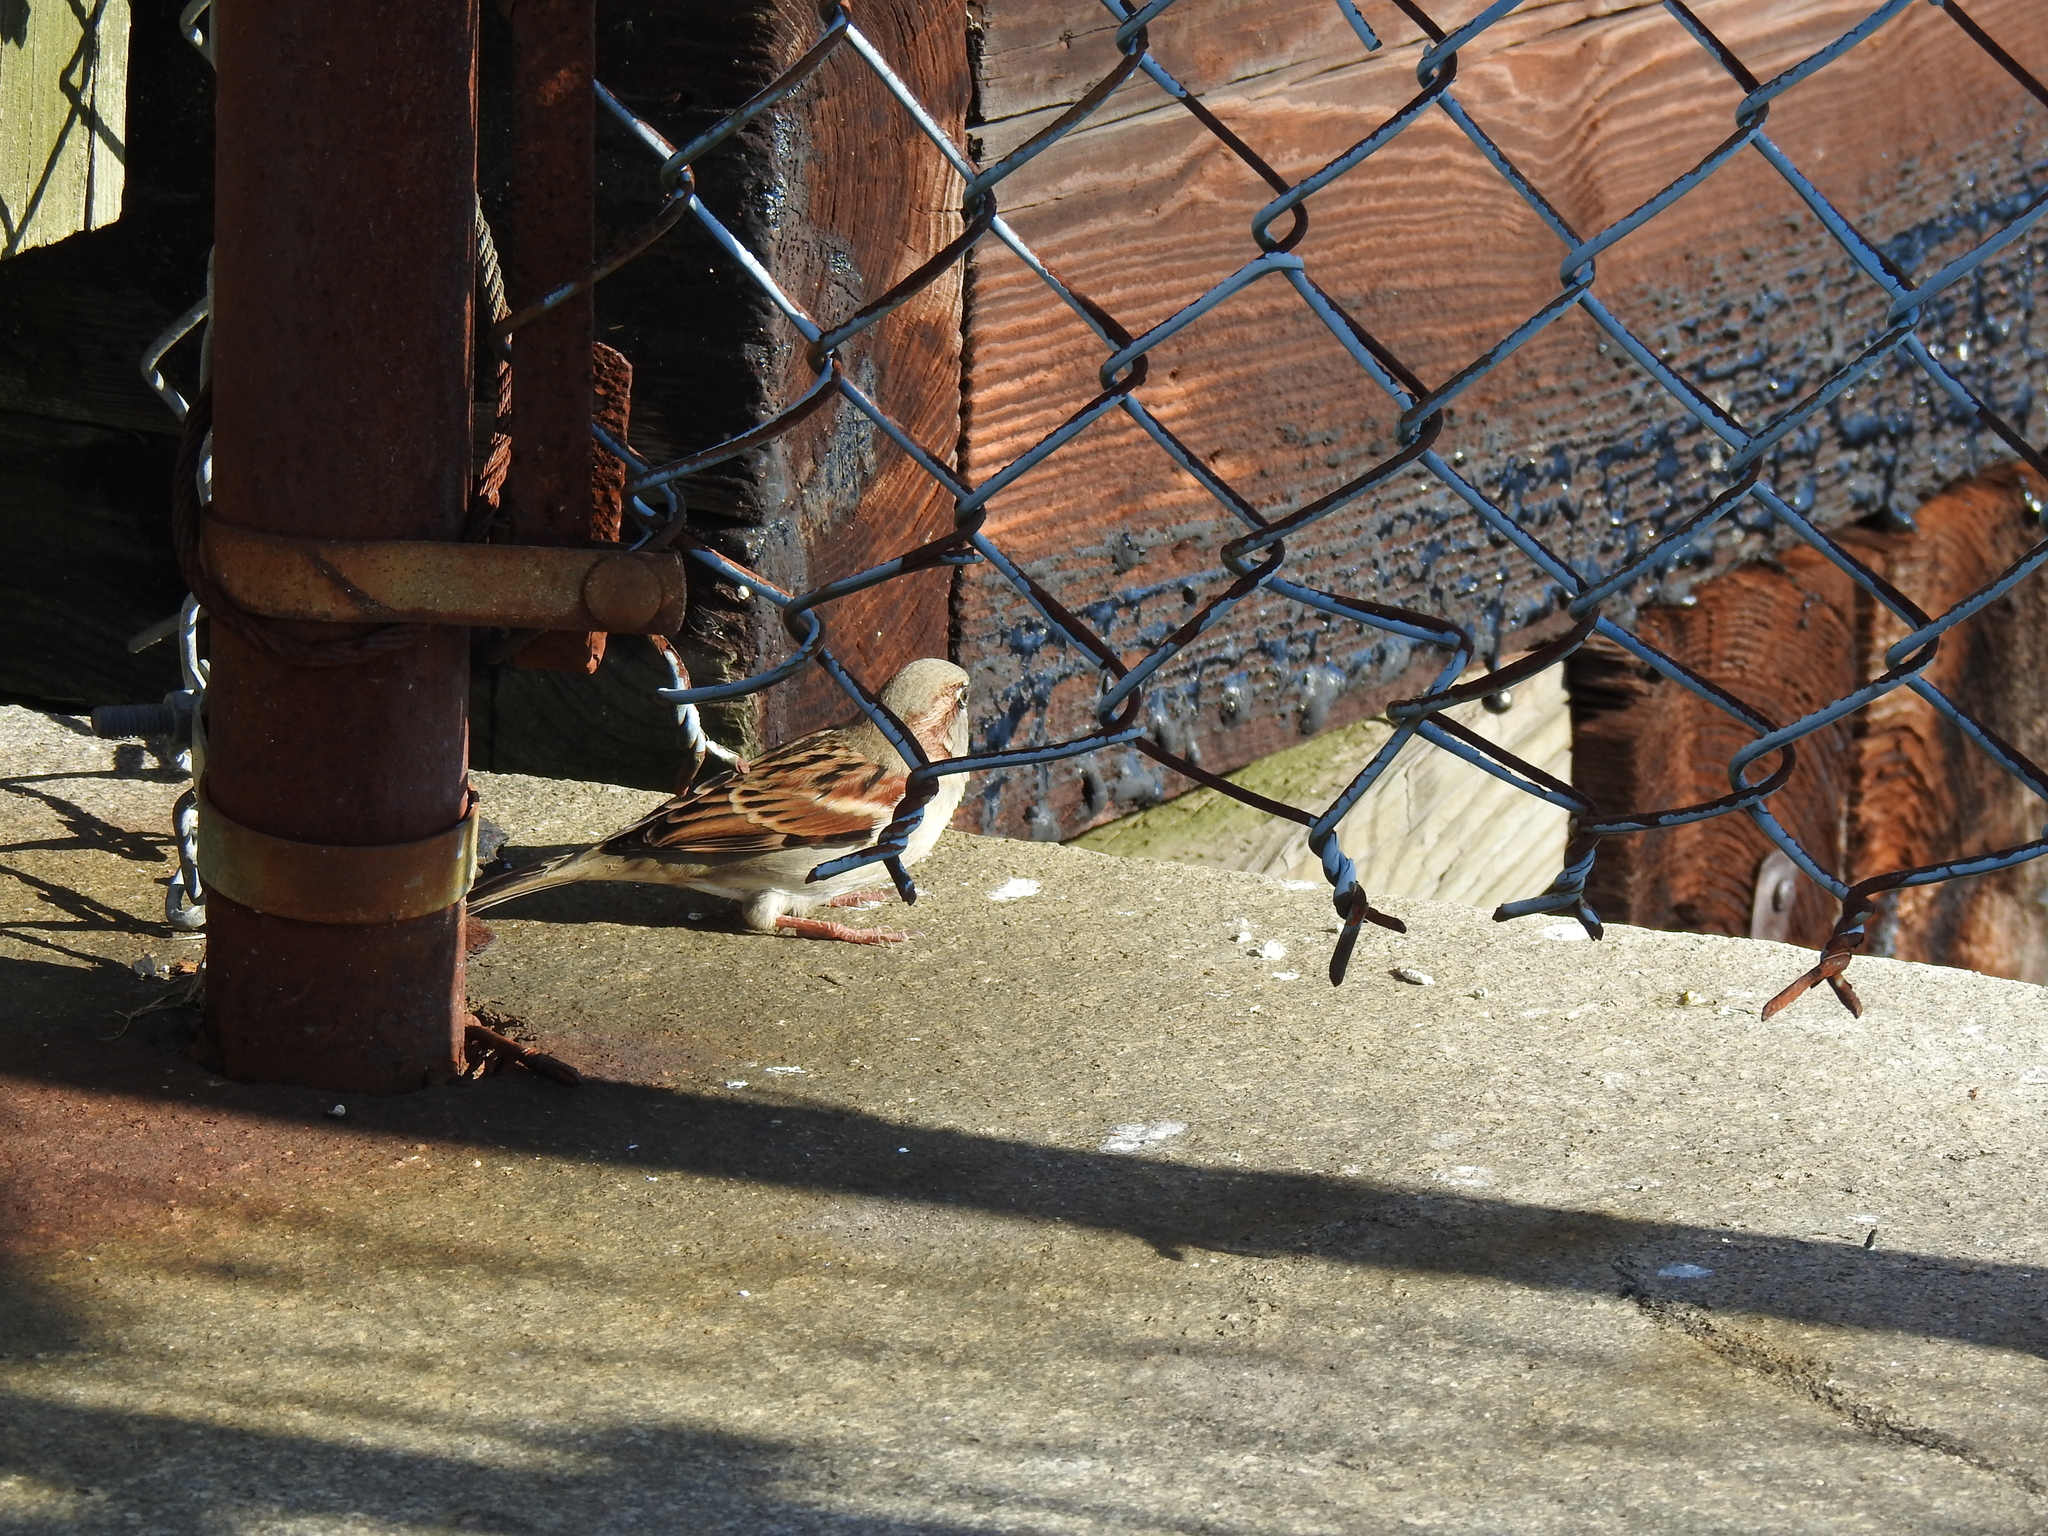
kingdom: Animalia
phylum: Chordata
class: Aves
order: Passeriformes
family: Passeridae
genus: Passer
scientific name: Passer domesticus
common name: House sparrow
